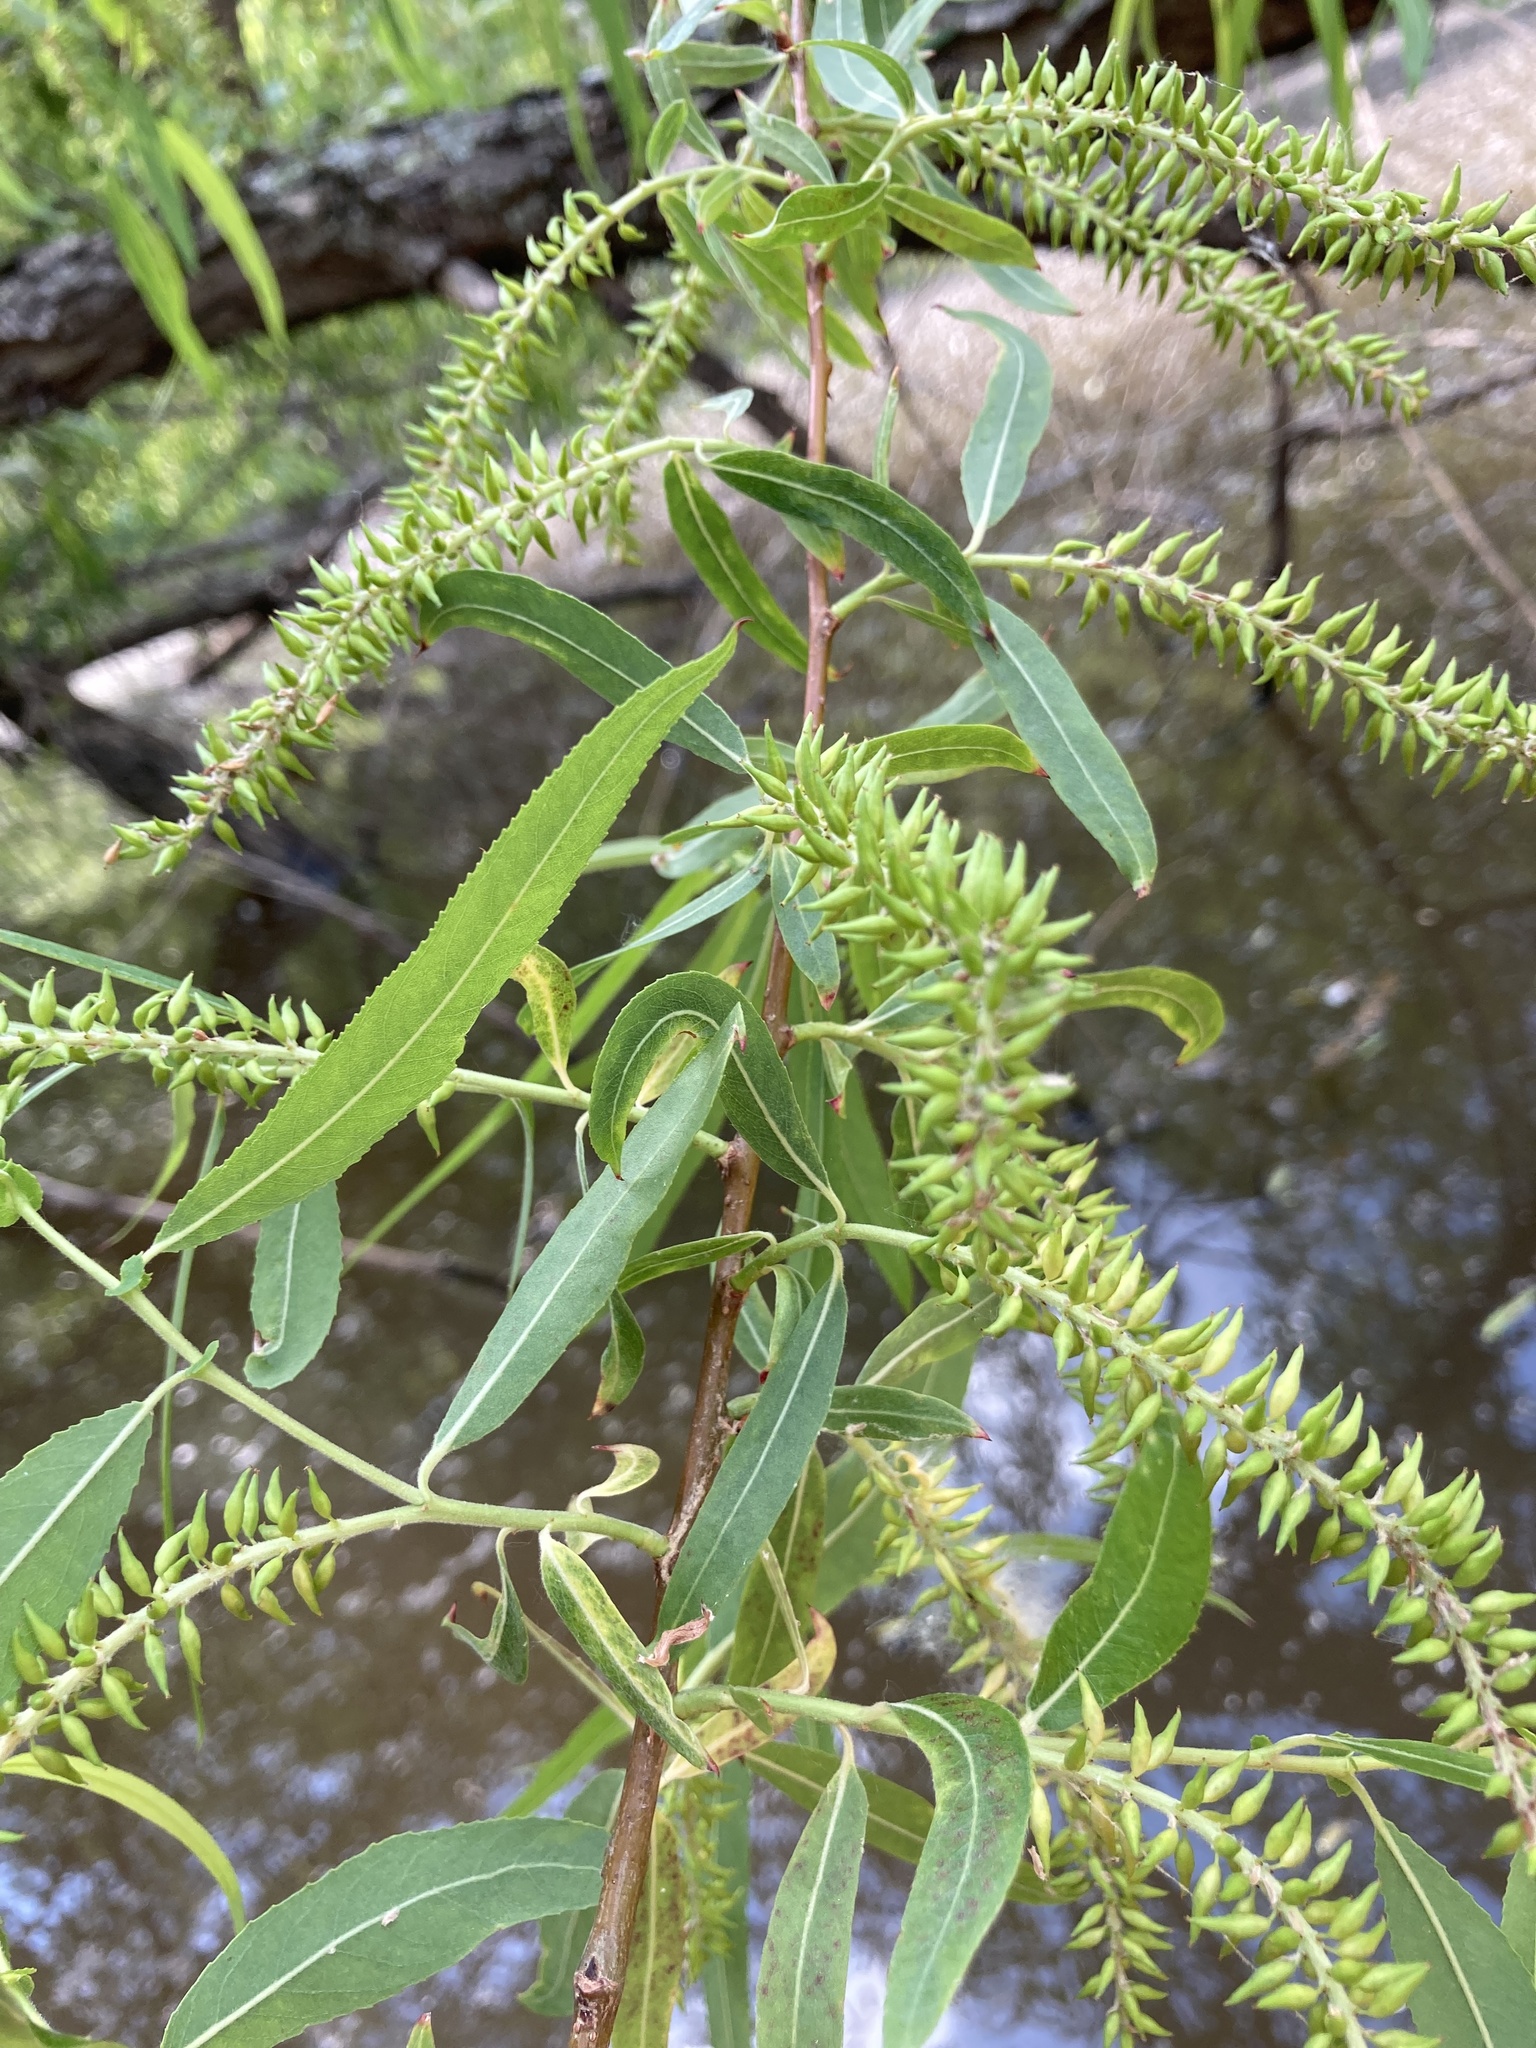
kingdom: Plantae
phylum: Tracheophyta
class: Magnoliopsida
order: Malpighiales
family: Salicaceae
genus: Salix
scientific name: Salix nigra
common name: Black willow
